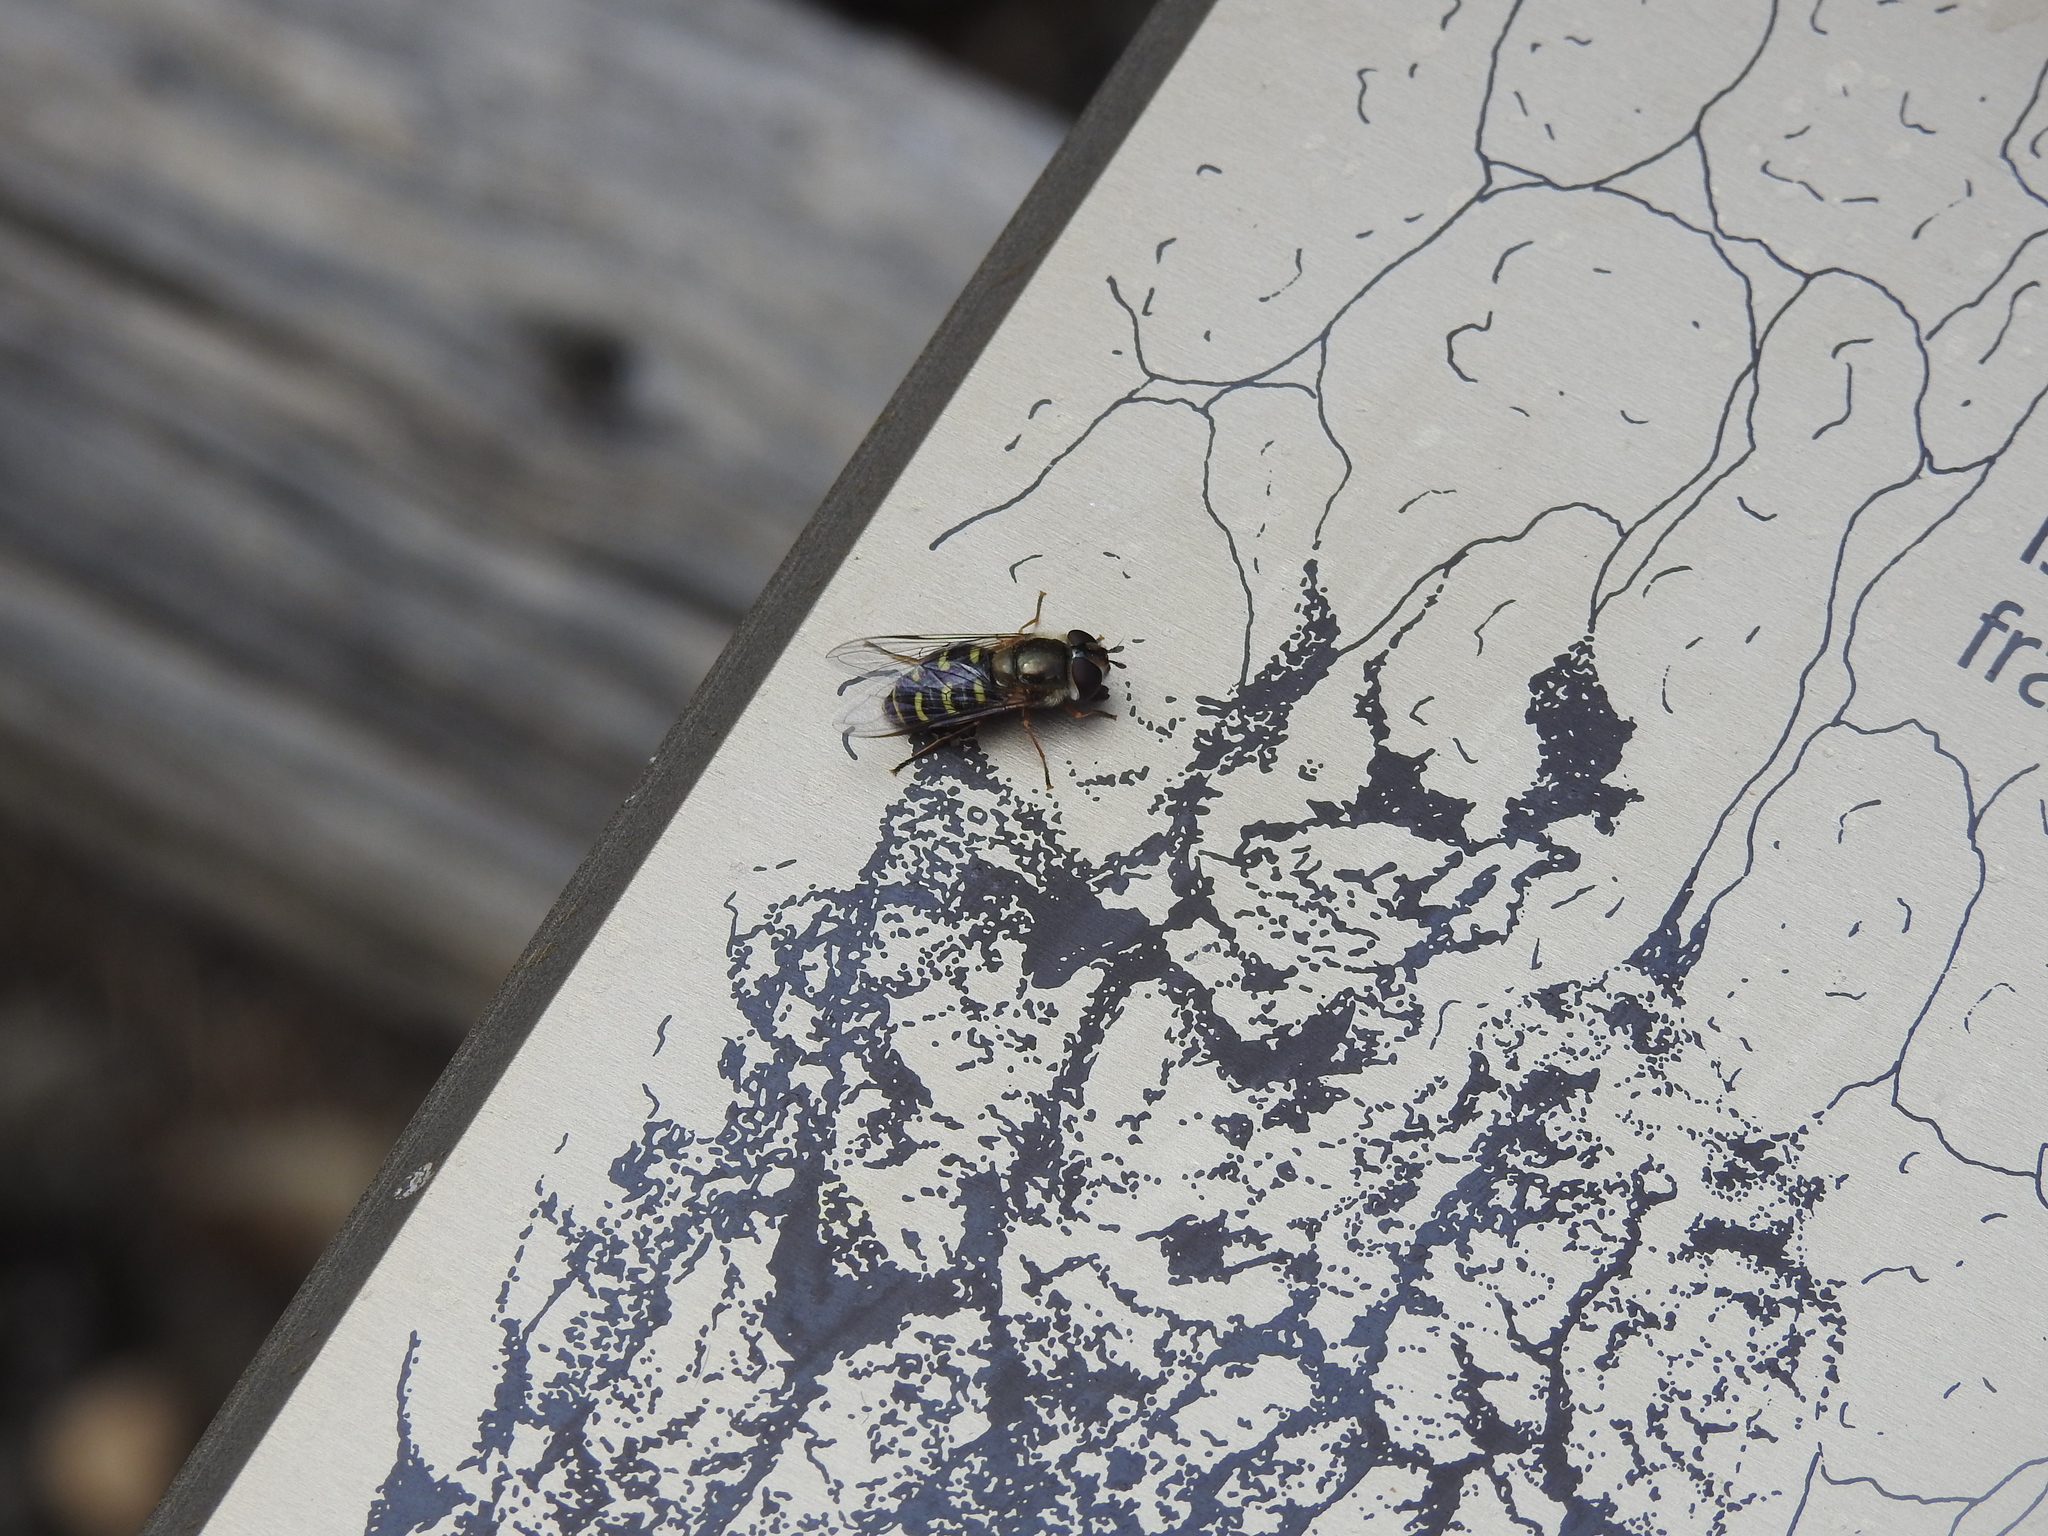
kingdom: Animalia
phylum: Arthropoda
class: Insecta
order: Diptera
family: Syrphidae
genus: Lapposyrphus
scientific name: Lapposyrphus lapponicus
